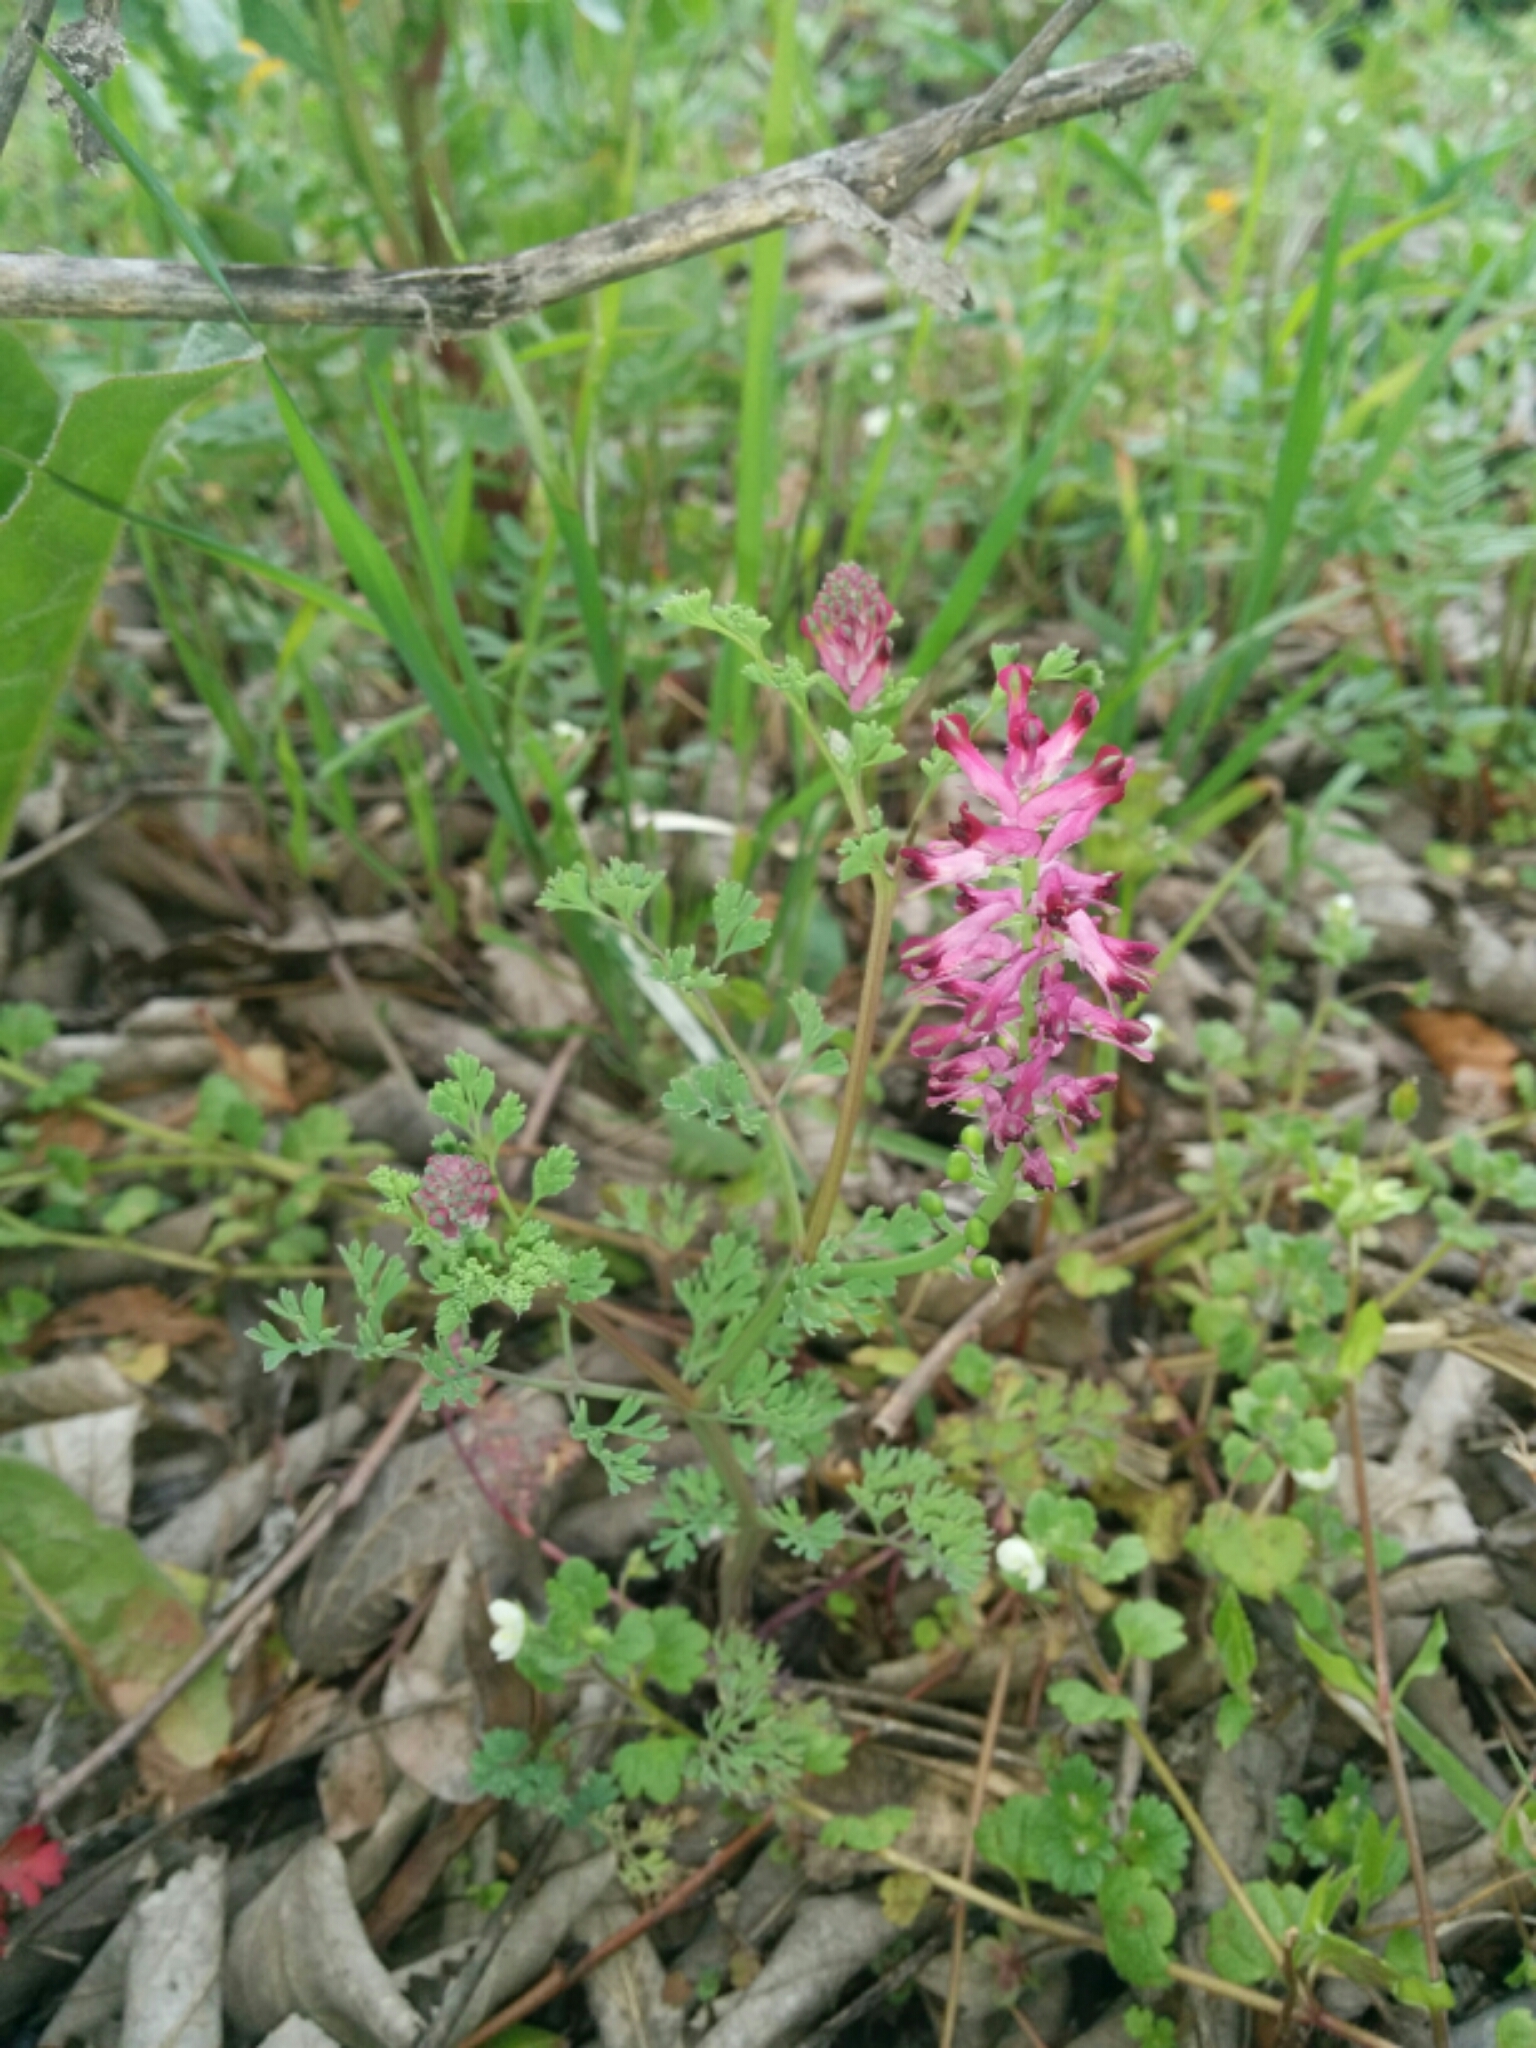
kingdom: Plantae
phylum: Tracheophyta
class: Magnoliopsida
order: Ranunculales
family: Papaveraceae
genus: Fumaria
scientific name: Fumaria officinalis
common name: Common fumitory
